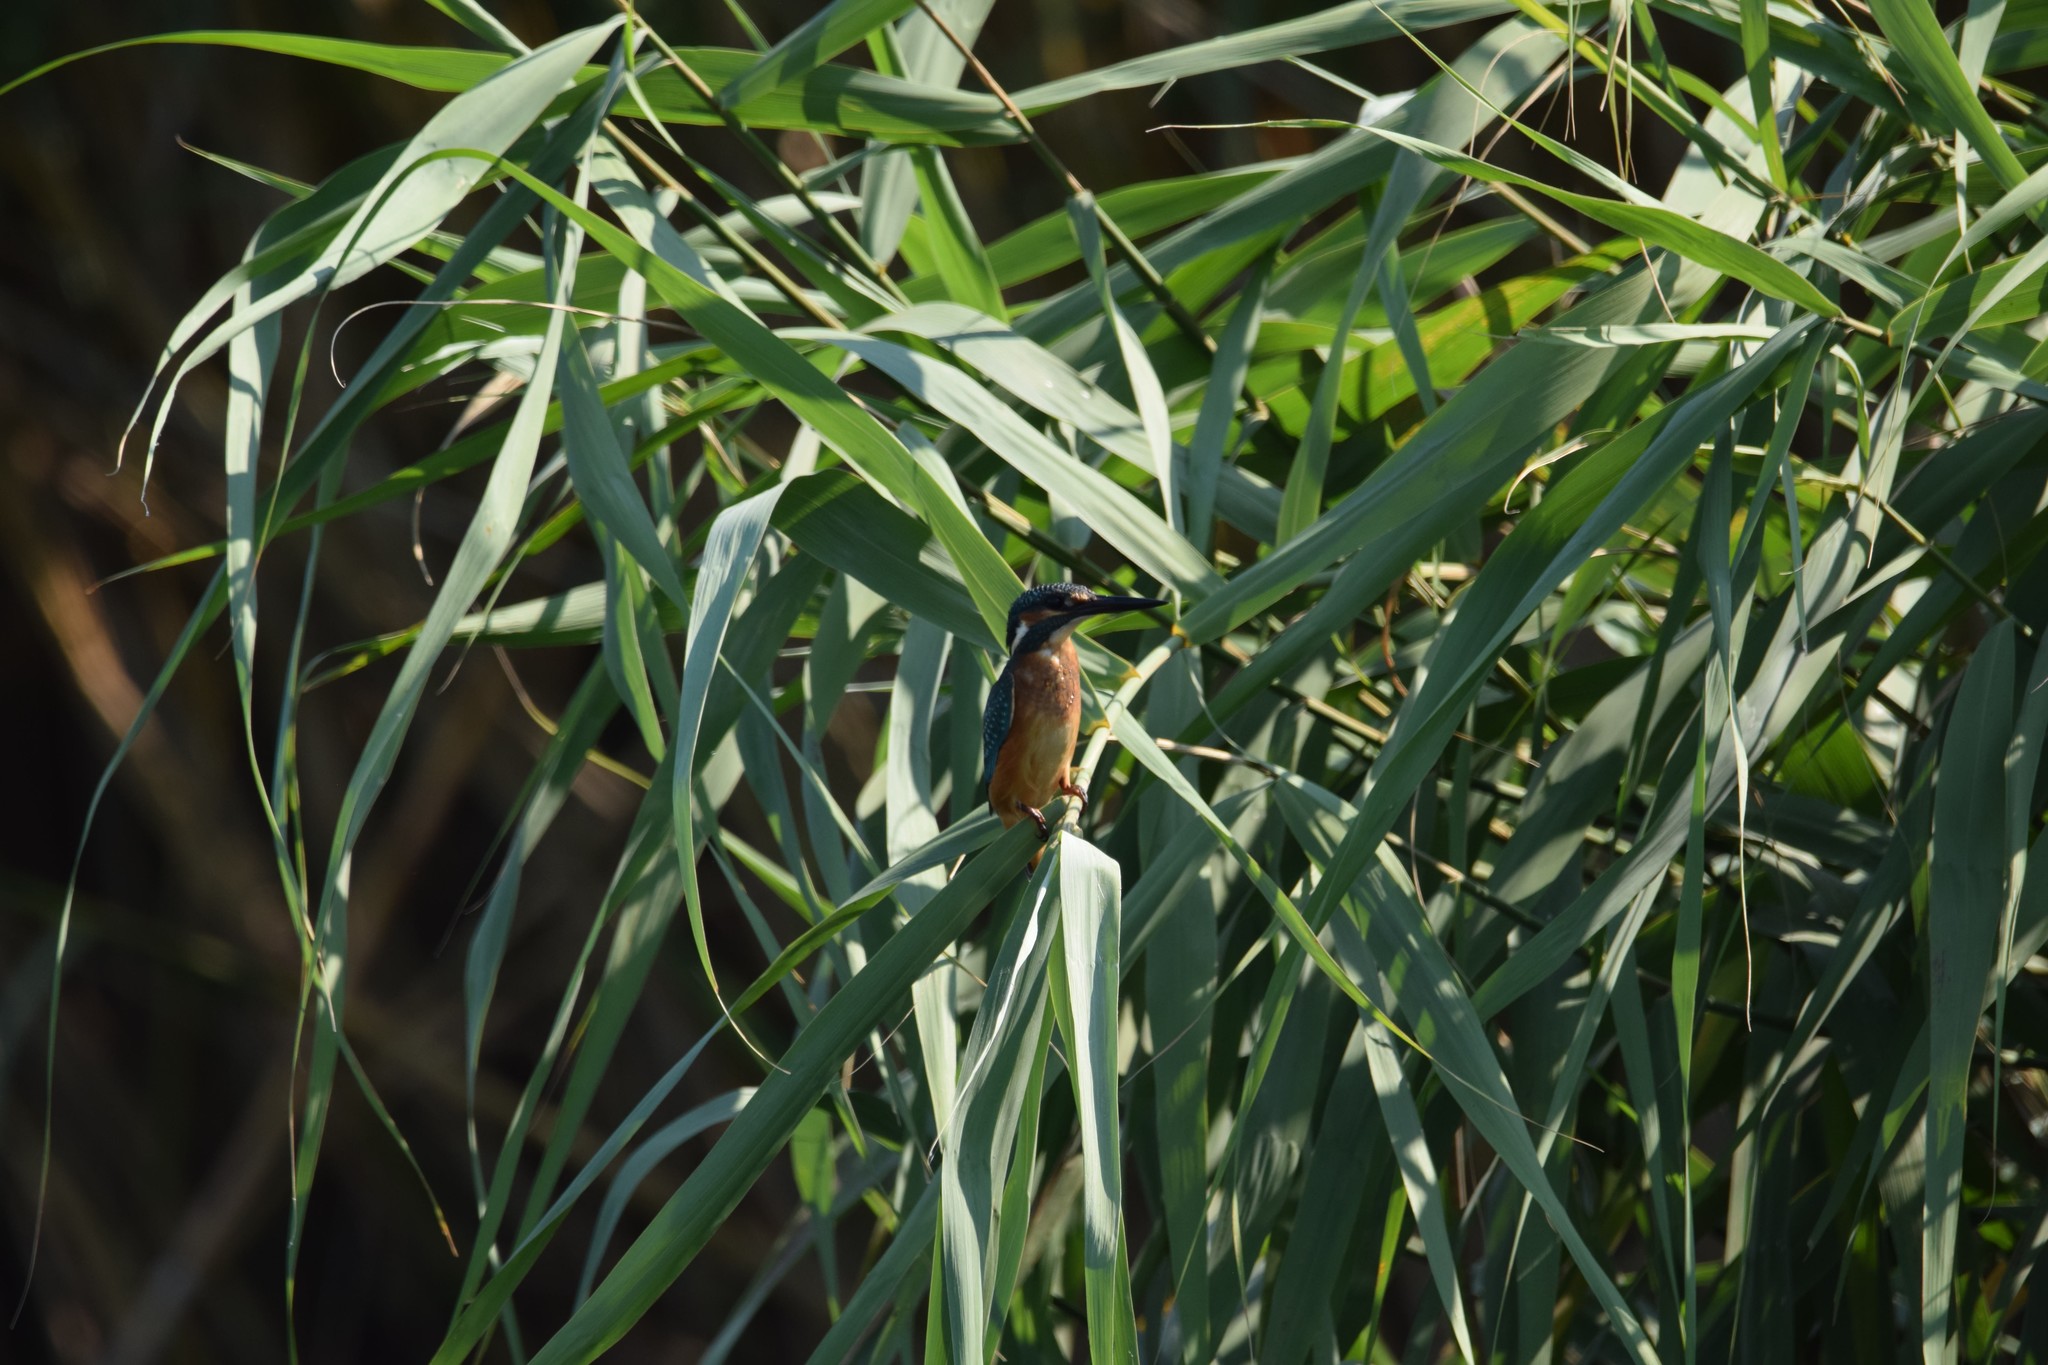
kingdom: Animalia
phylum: Chordata
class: Aves
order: Coraciiformes
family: Alcedinidae
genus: Alcedo
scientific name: Alcedo atthis
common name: Common kingfisher
